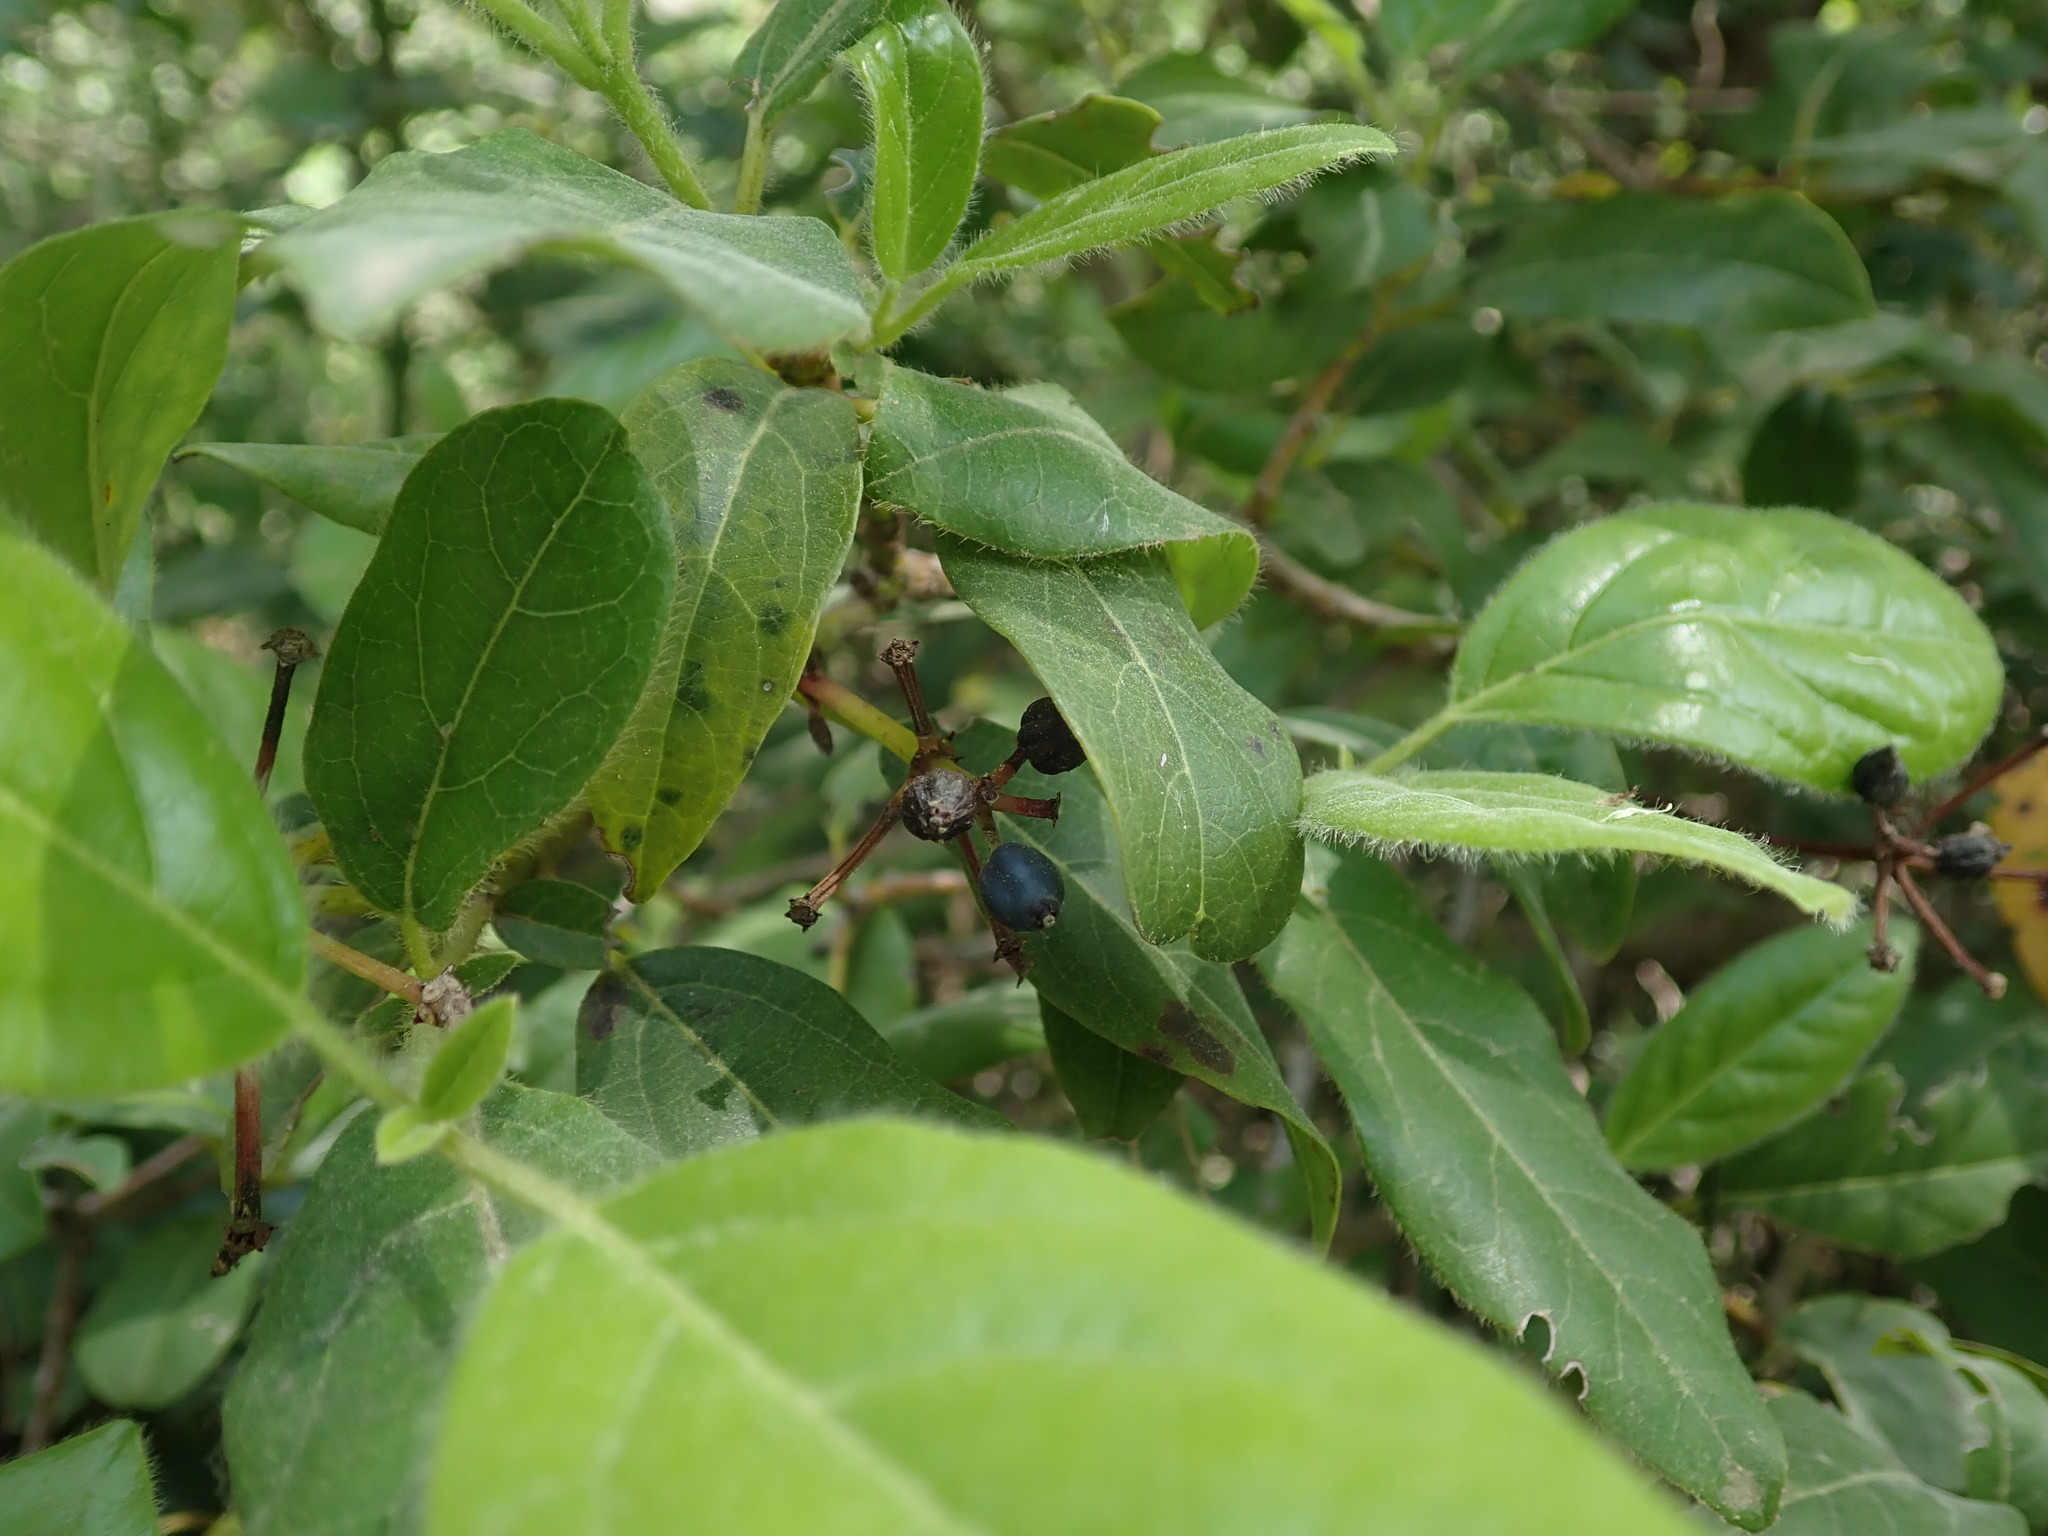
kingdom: Plantae
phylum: Tracheophyta
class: Magnoliopsida
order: Dipsacales
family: Viburnaceae
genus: Viburnum
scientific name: Viburnum tinus
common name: Laurustinus
